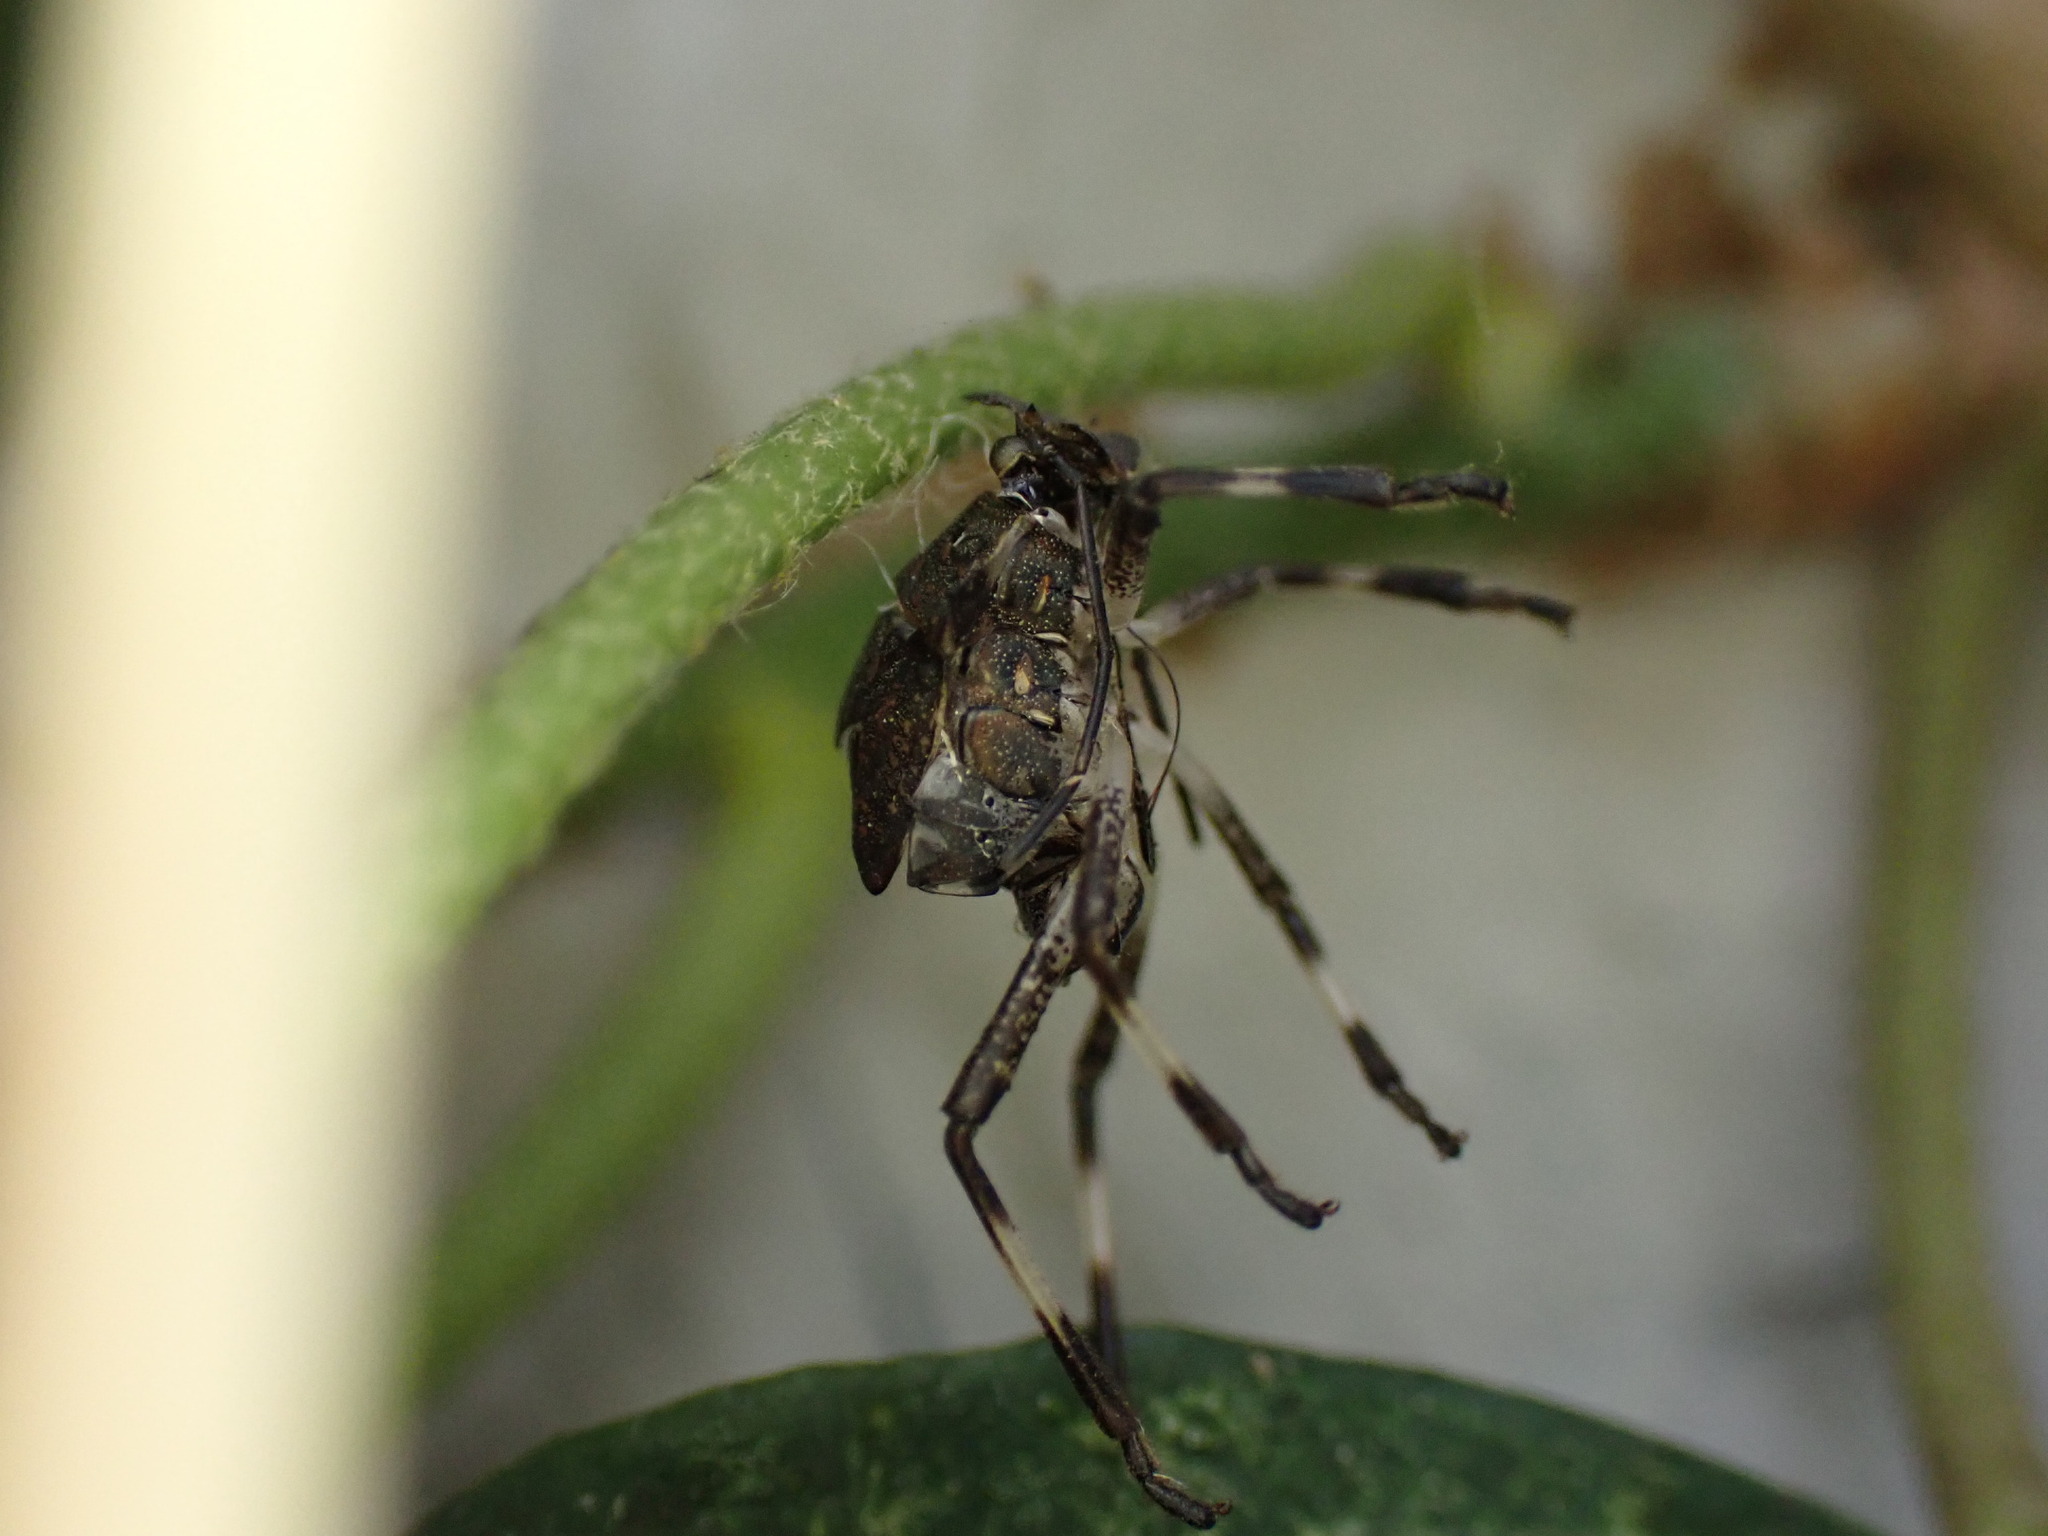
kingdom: Animalia
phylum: Arthropoda
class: Insecta
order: Hemiptera
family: Pentatomidae
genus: Halyomorpha
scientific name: Halyomorpha halys
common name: Brown marmorated stink bug
